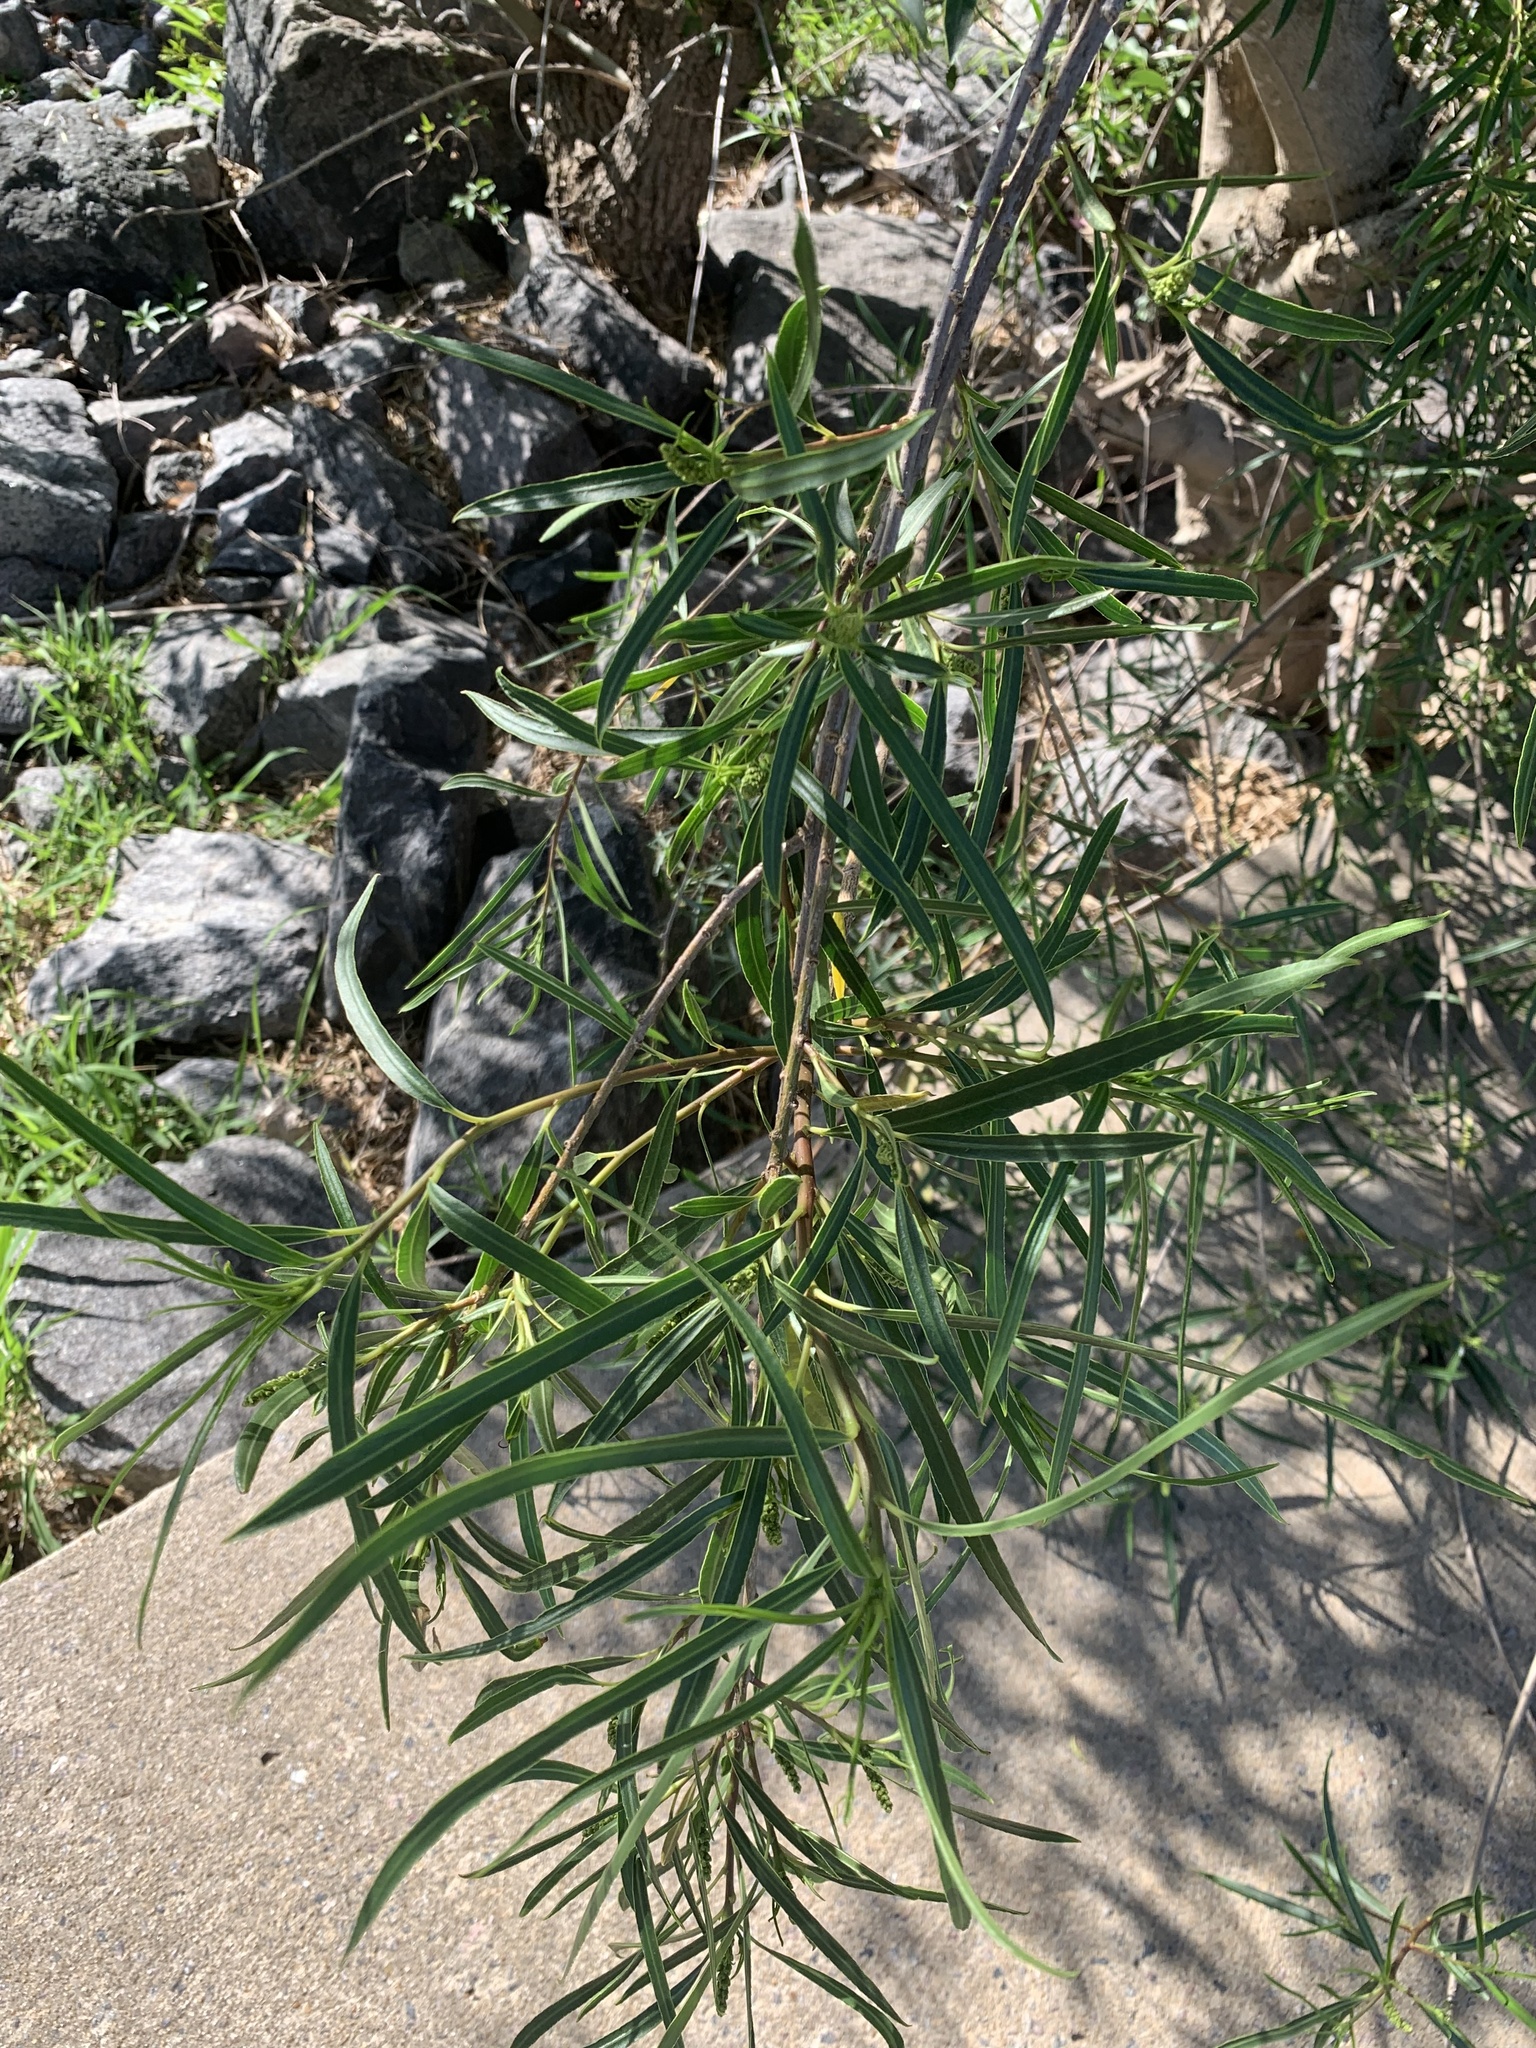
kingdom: Plantae
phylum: Tracheophyta
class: Magnoliopsida
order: Malpighiales
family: Euphorbiaceae
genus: Sapium
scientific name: Sapium haematospermum
